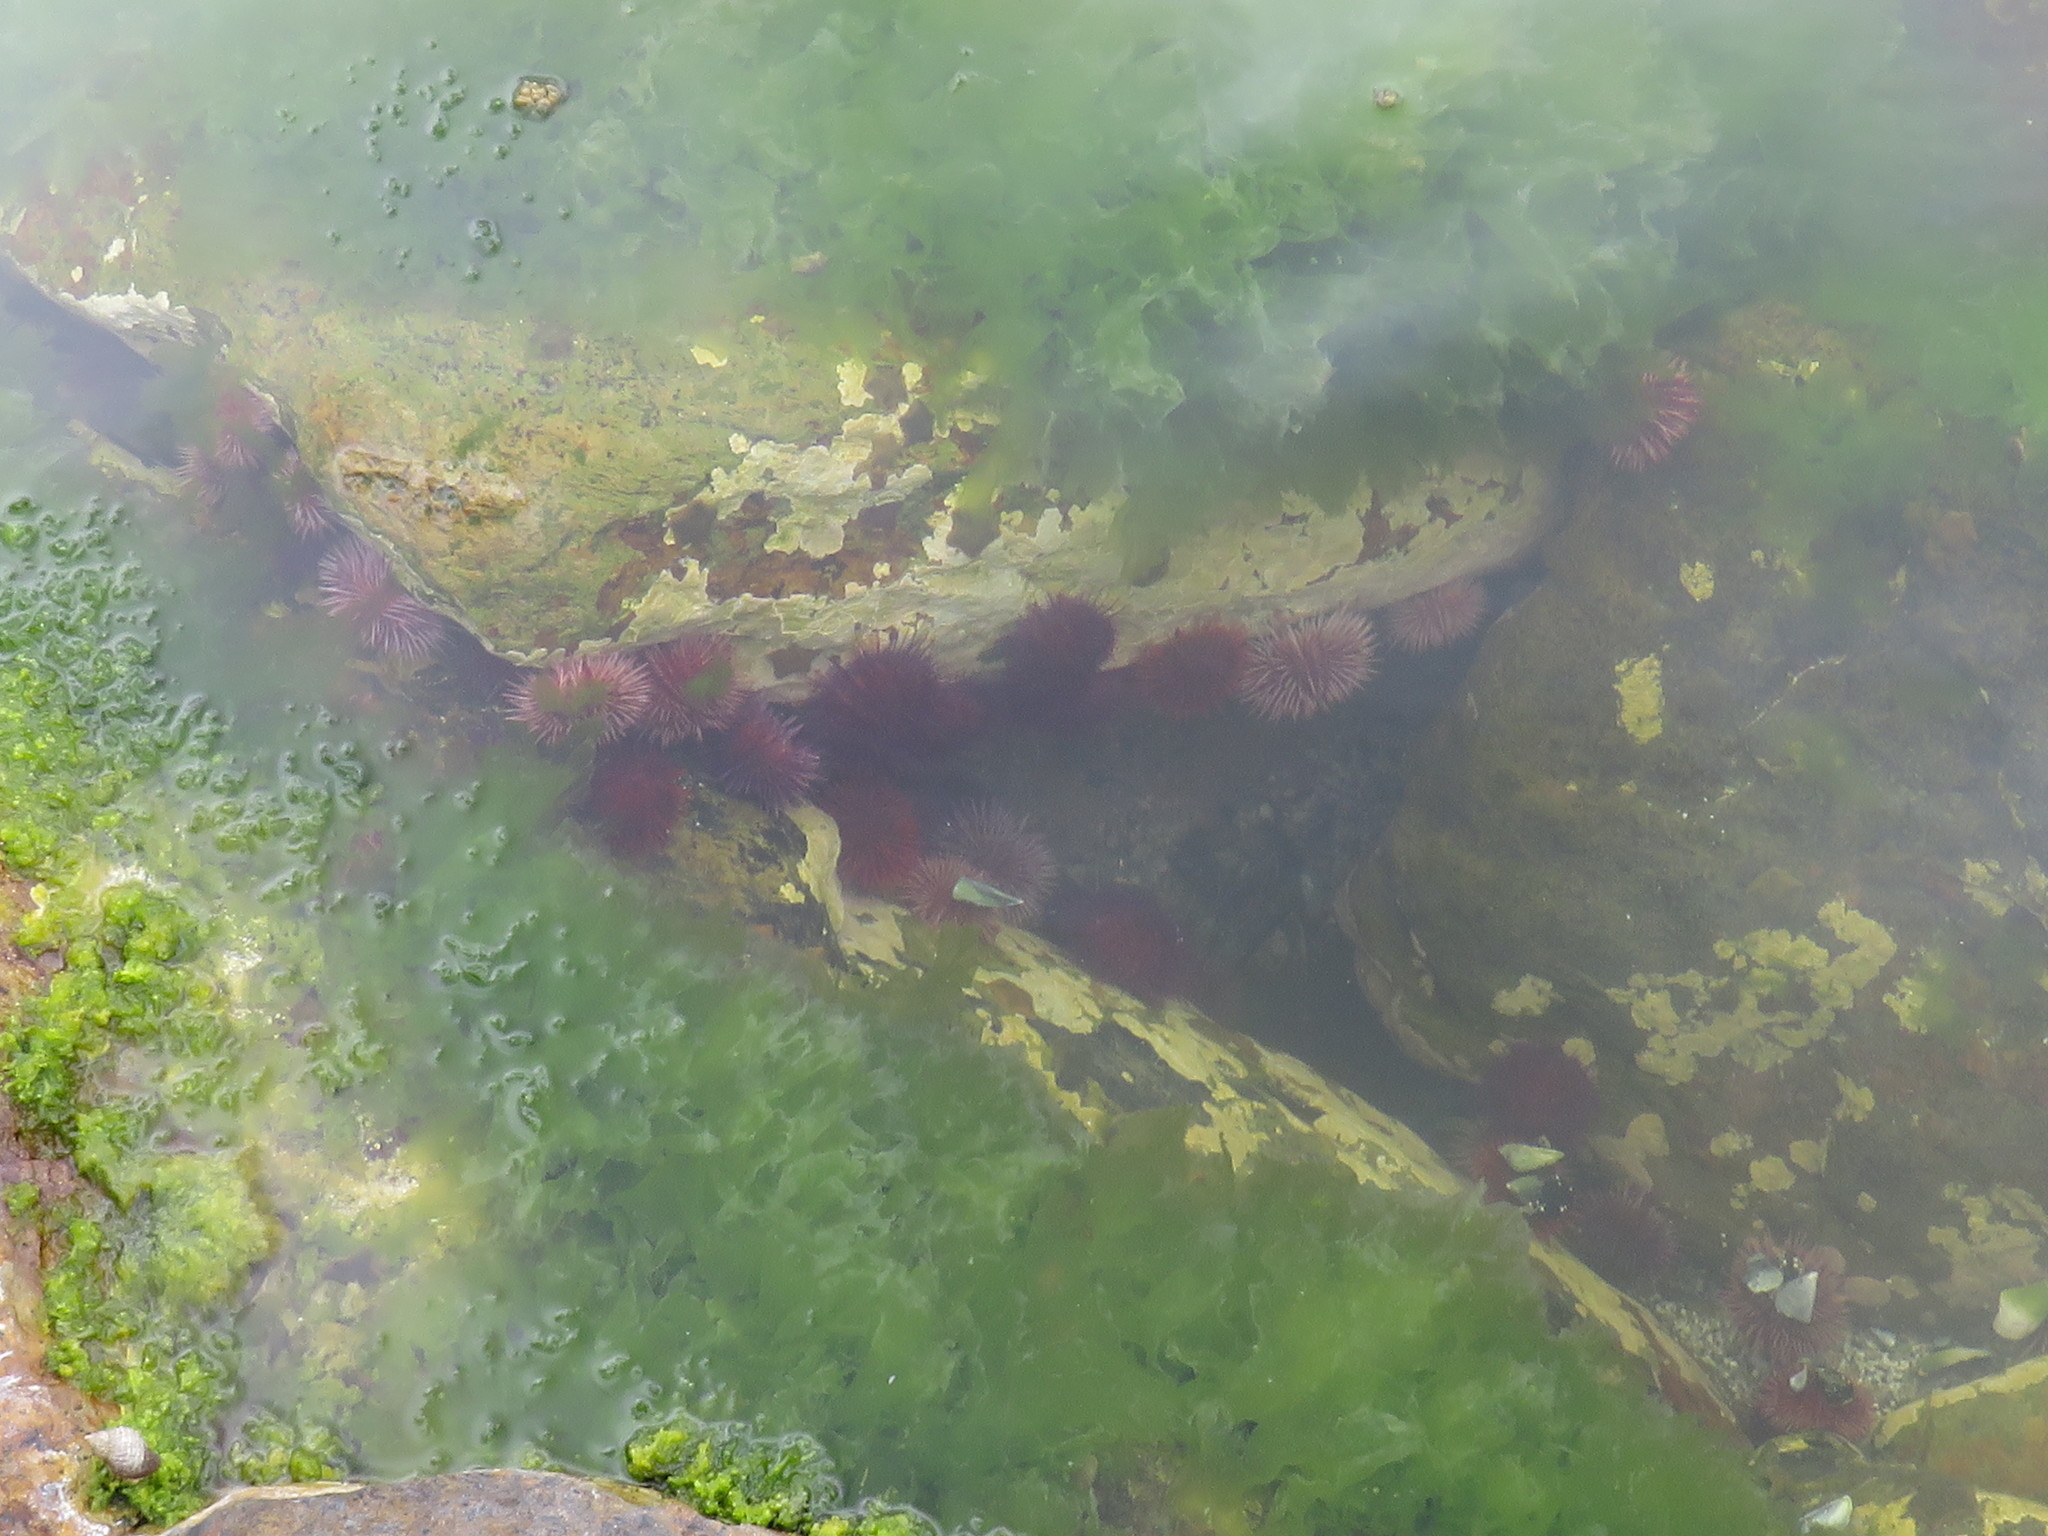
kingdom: Animalia
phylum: Echinodermata
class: Echinoidea
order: Camarodonta
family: Parechinidae
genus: Parechinus
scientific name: Parechinus angulosus
